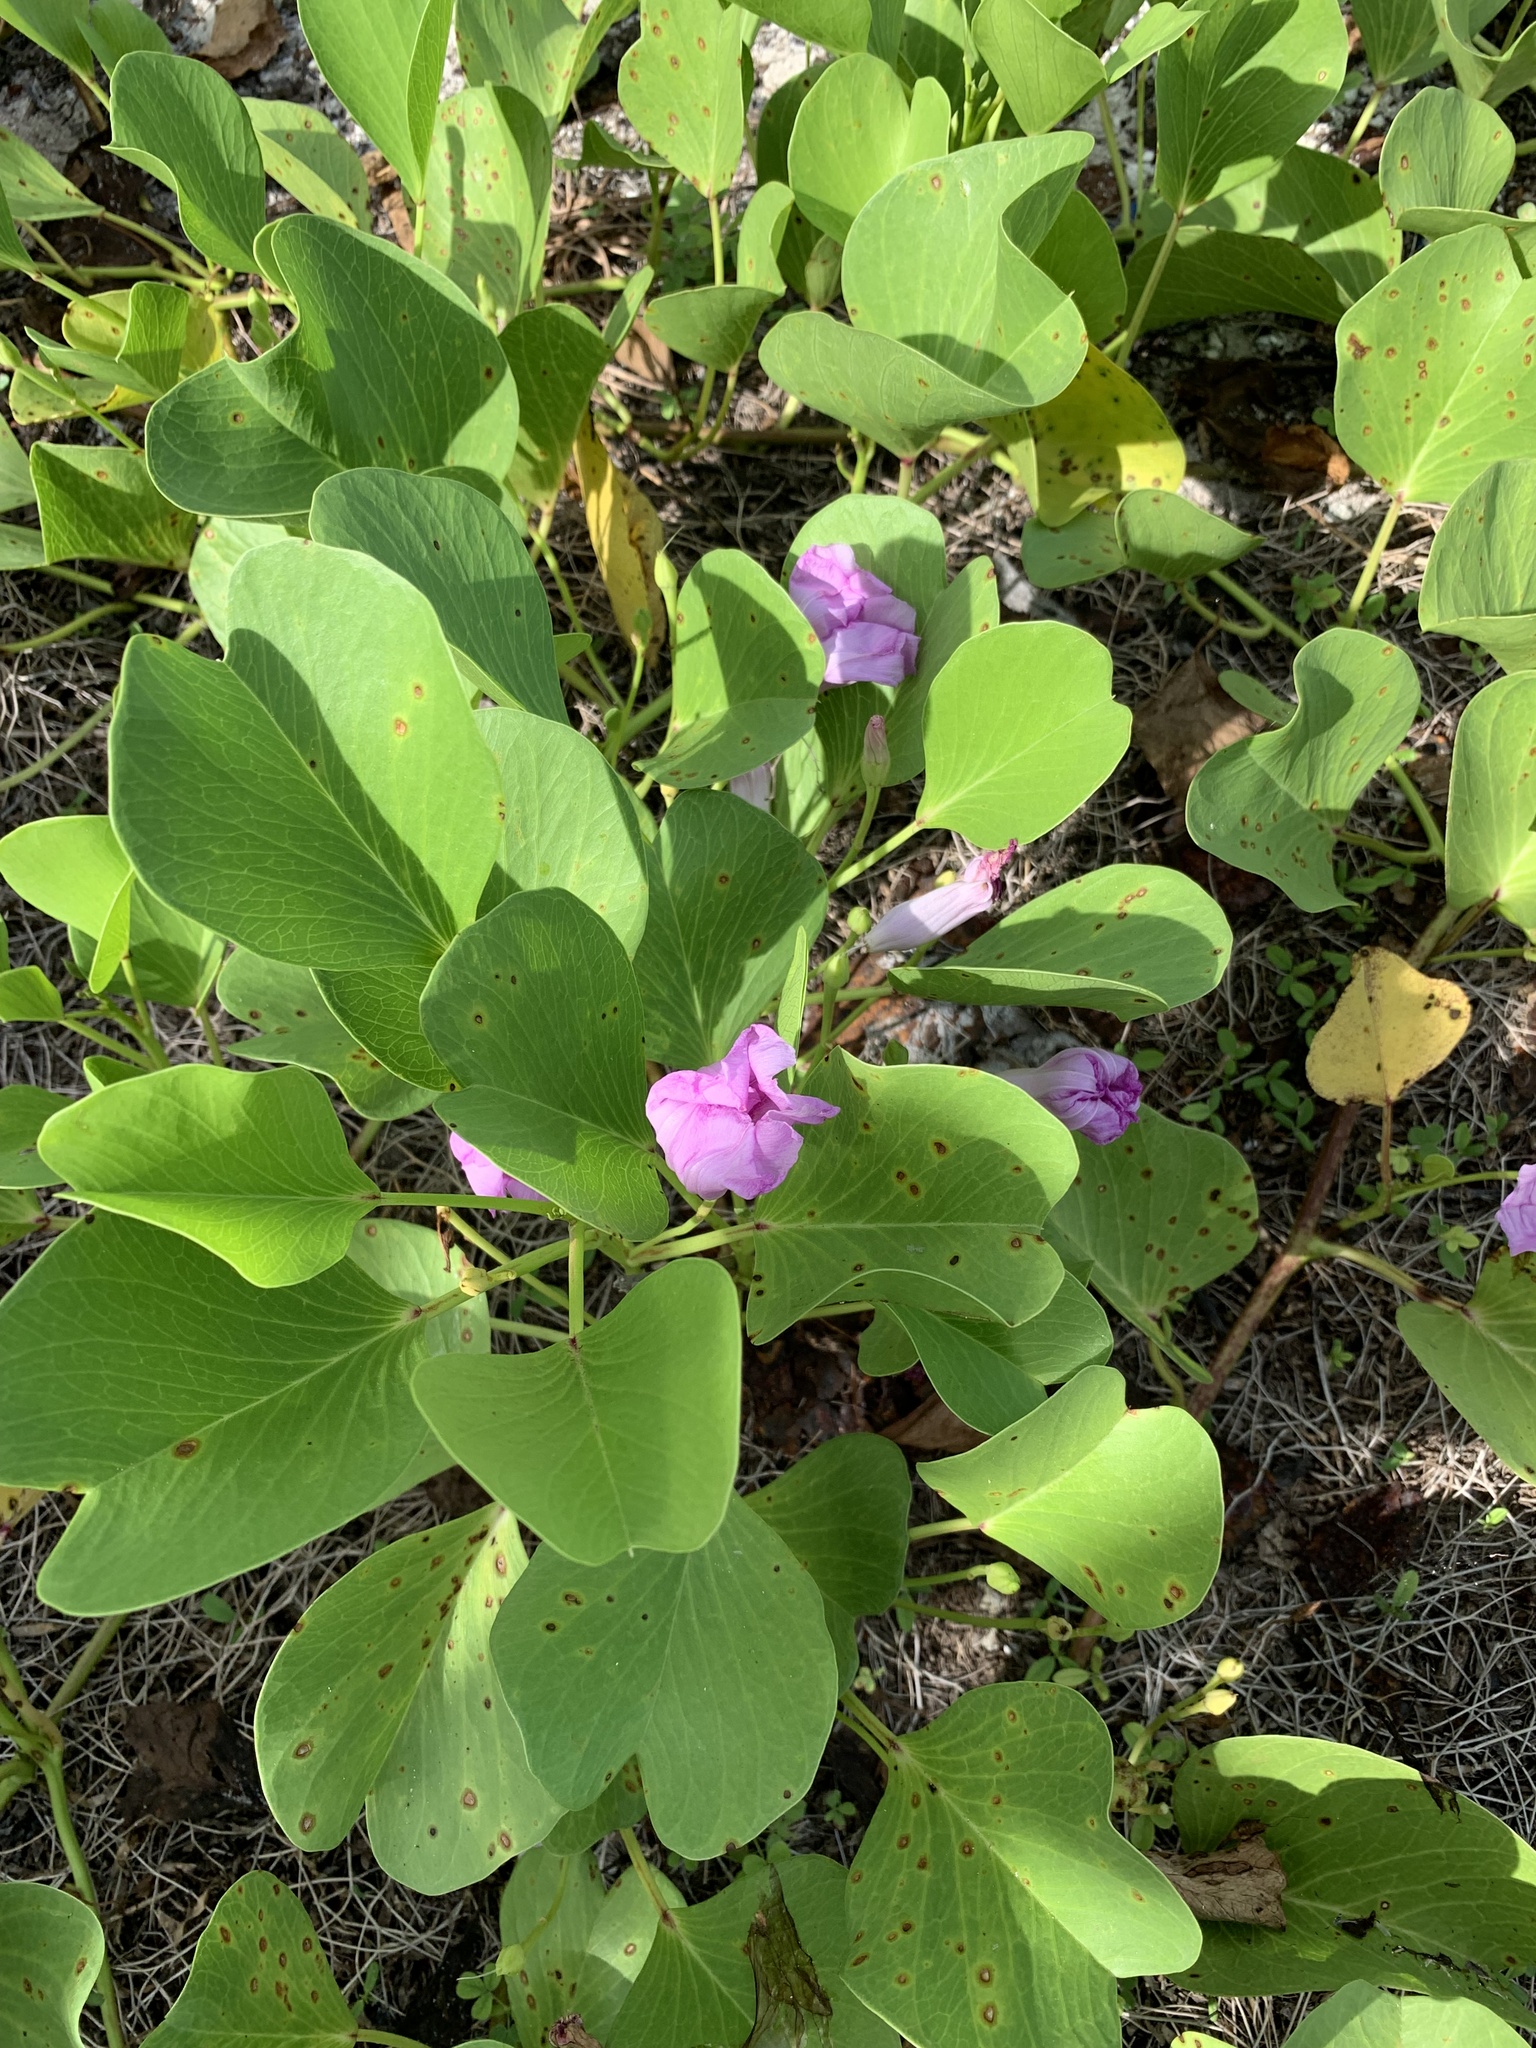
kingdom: Plantae
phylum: Tracheophyta
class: Magnoliopsida
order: Solanales
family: Convolvulaceae
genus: Ipomoea
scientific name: Ipomoea pes-caprae
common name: Beach morning glory
